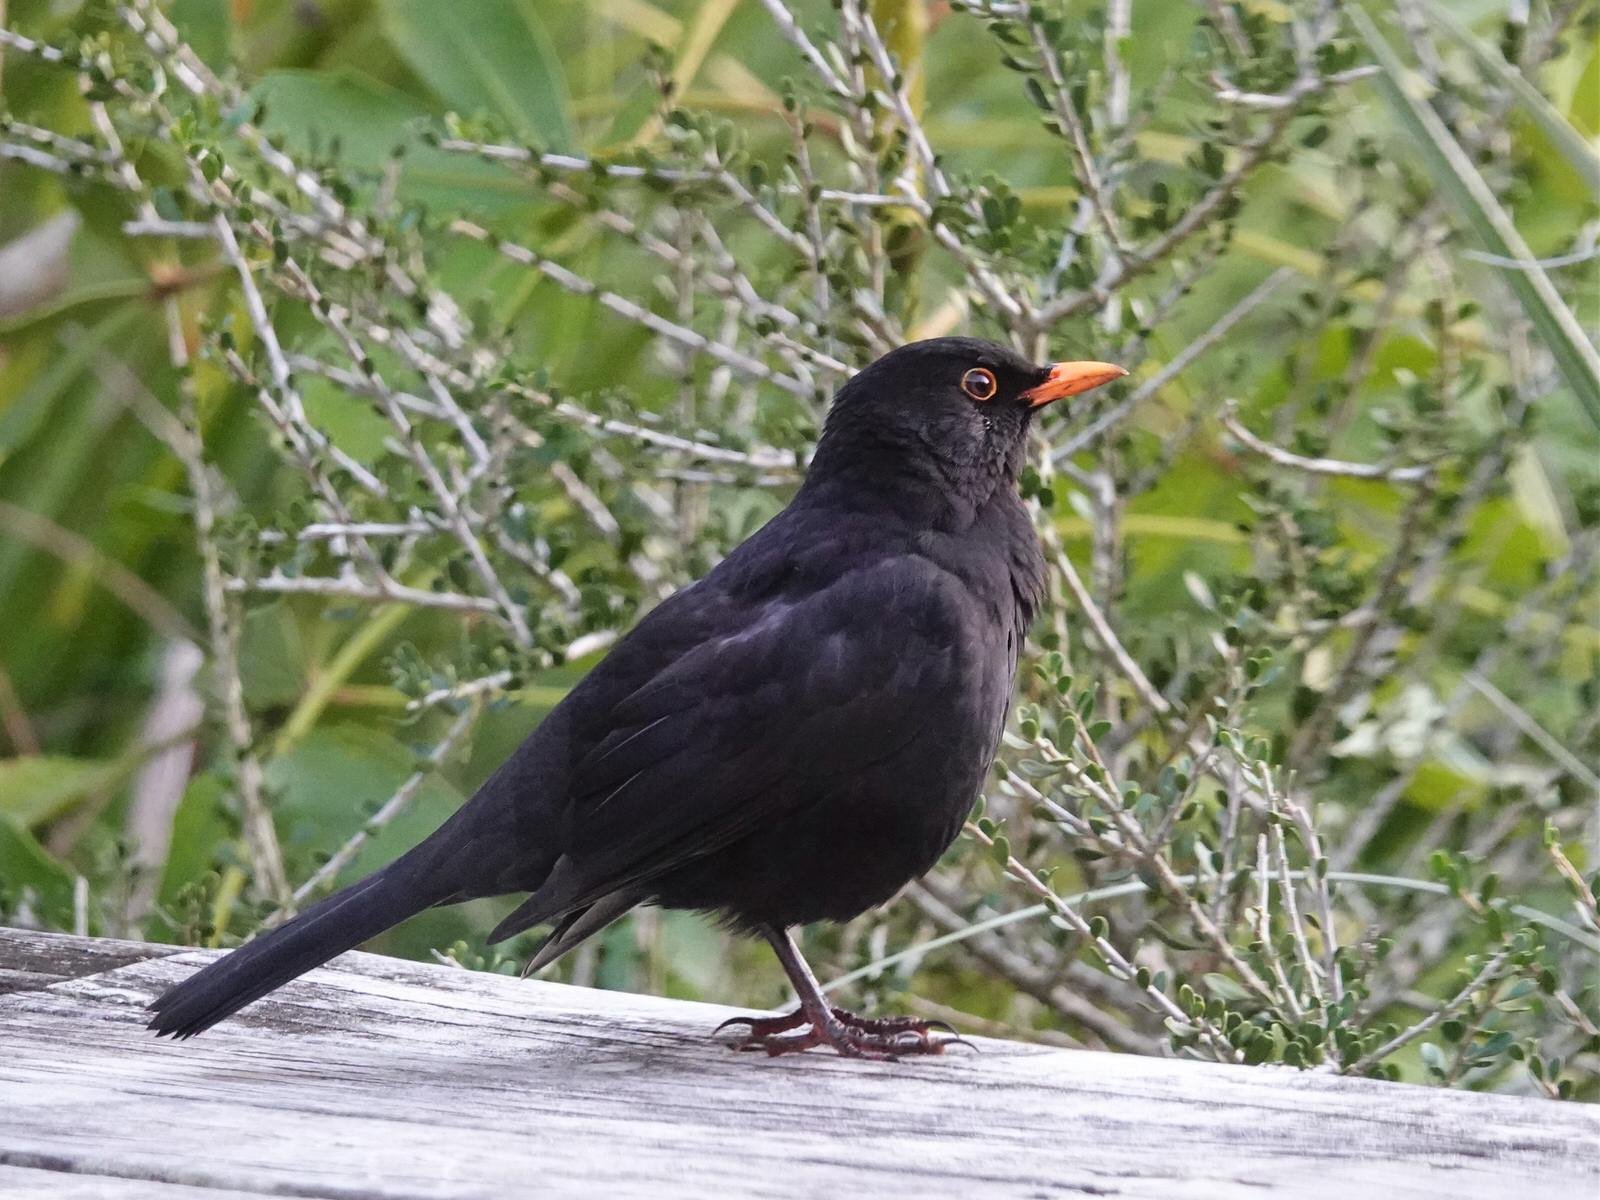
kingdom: Animalia
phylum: Chordata
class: Aves
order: Passeriformes
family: Turdidae
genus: Turdus
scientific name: Turdus merula
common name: Common blackbird
